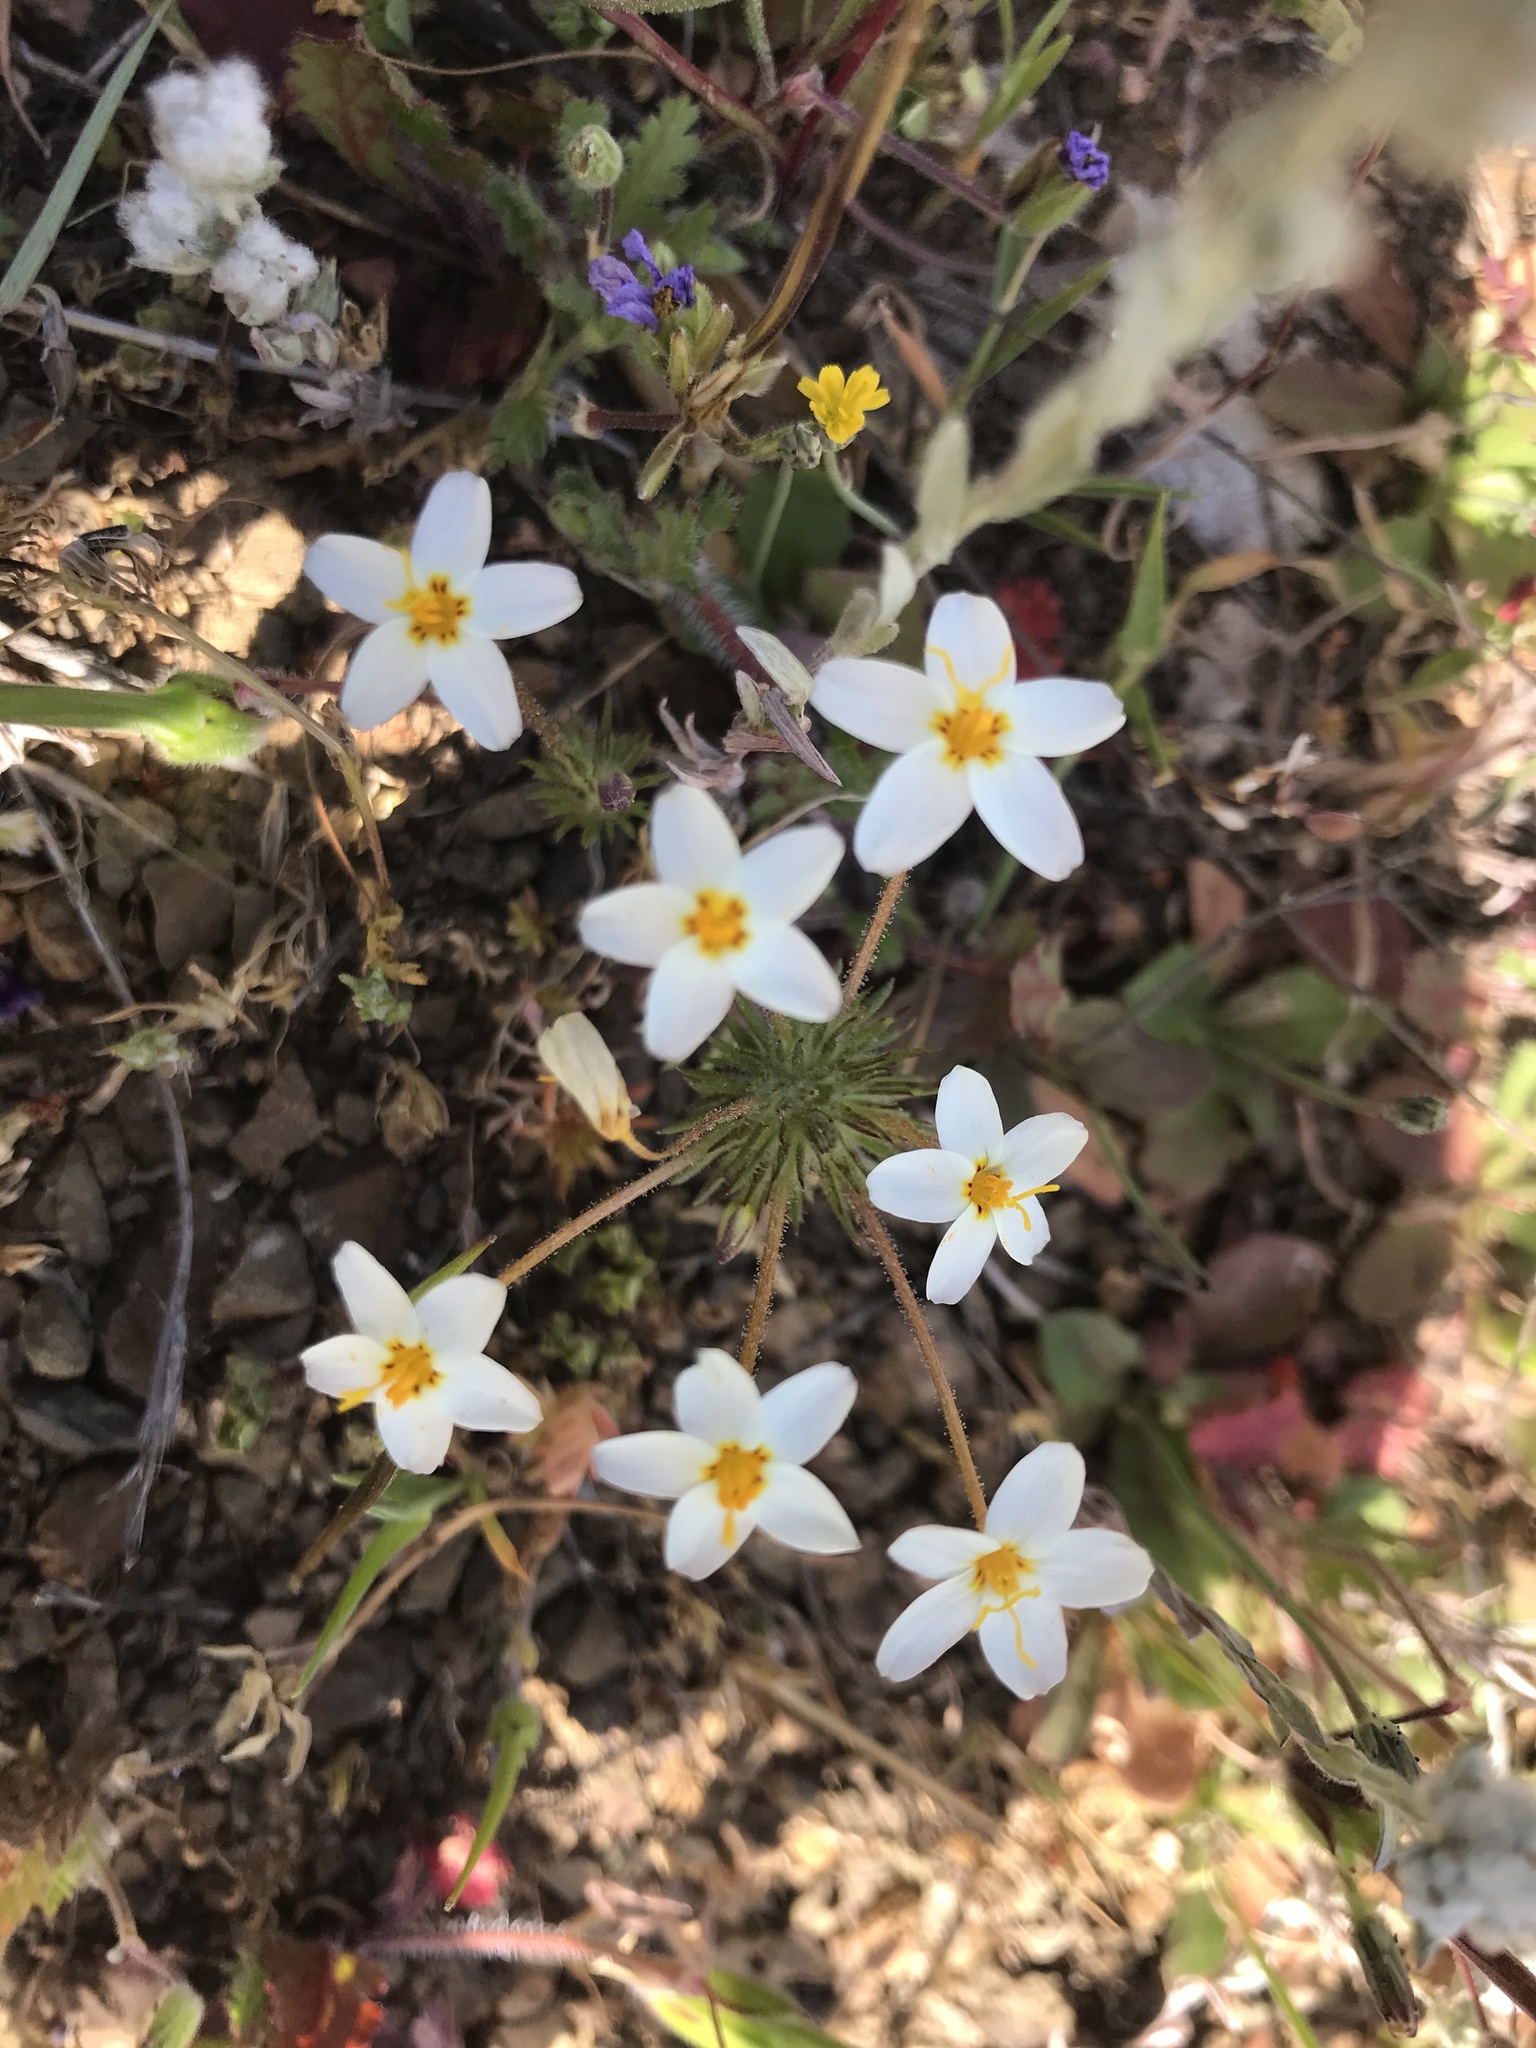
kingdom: Plantae
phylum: Tracheophyta
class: Magnoliopsida
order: Ericales
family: Polemoniaceae
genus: Leptosiphon
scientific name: Leptosiphon parviflorus
